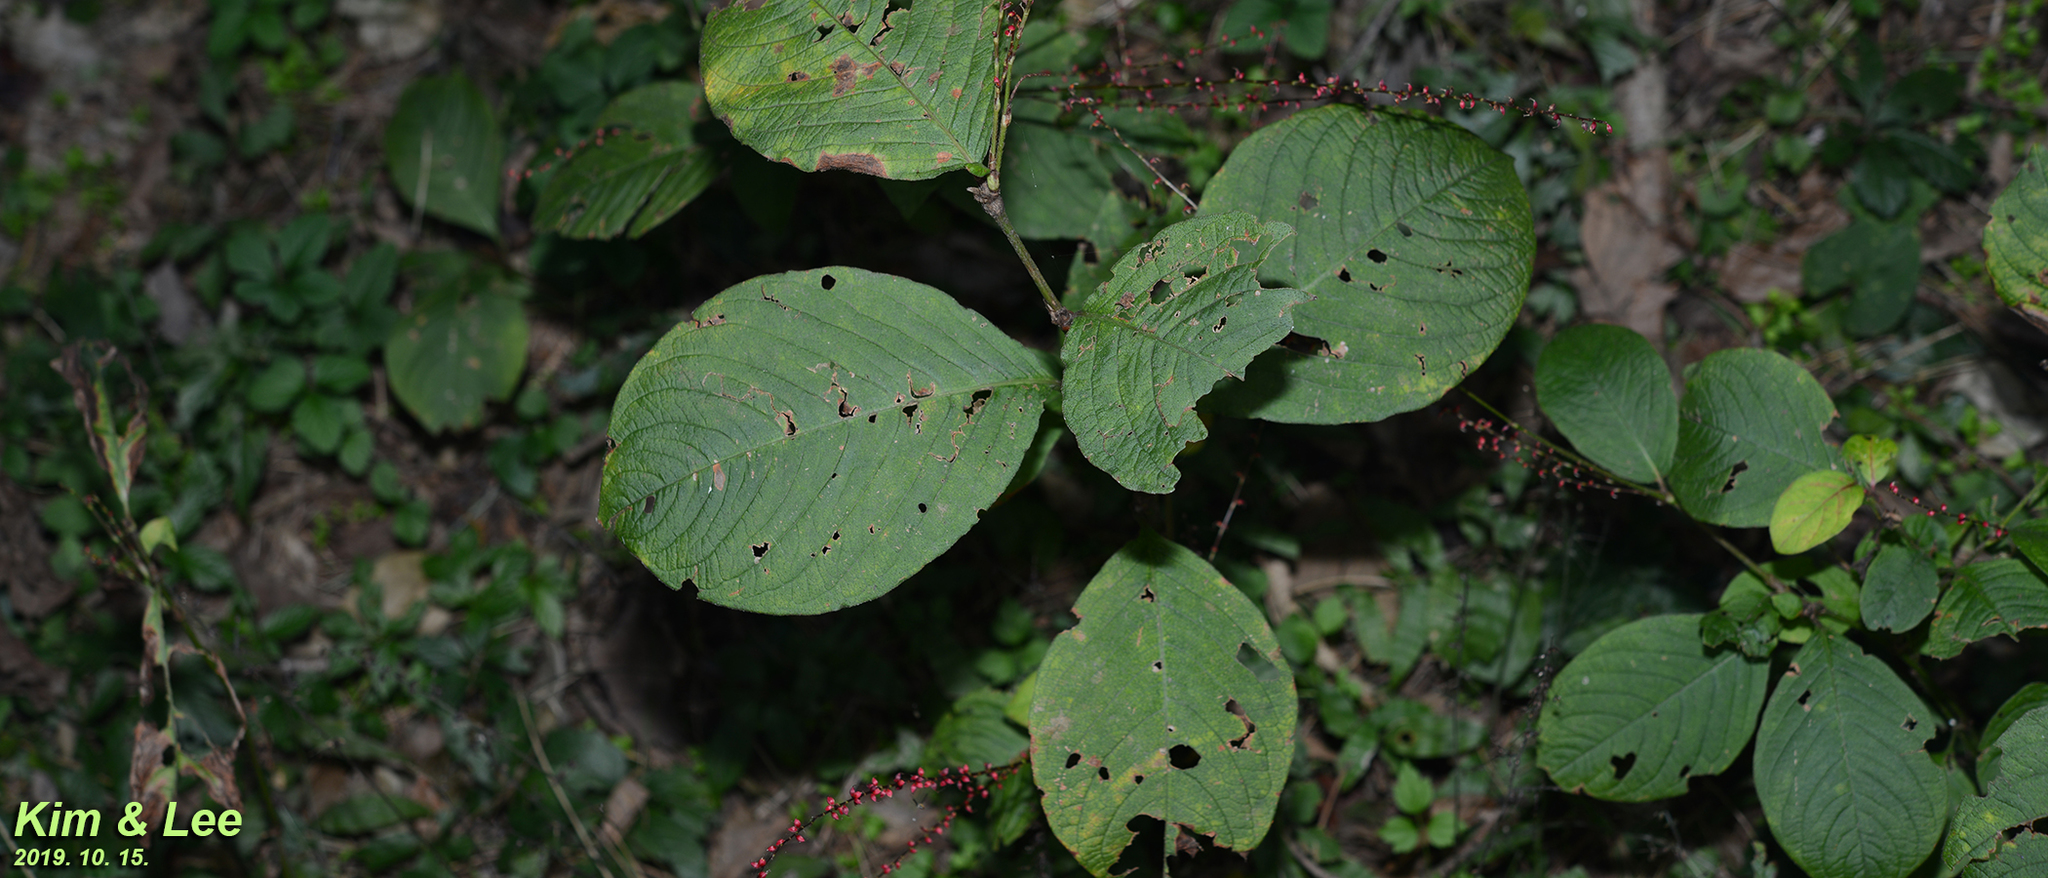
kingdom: Plantae
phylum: Tracheophyta
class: Magnoliopsida
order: Caryophyllales
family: Polygonaceae
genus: Persicaria
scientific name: Persicaria filiformis
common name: Asian jumpseed
